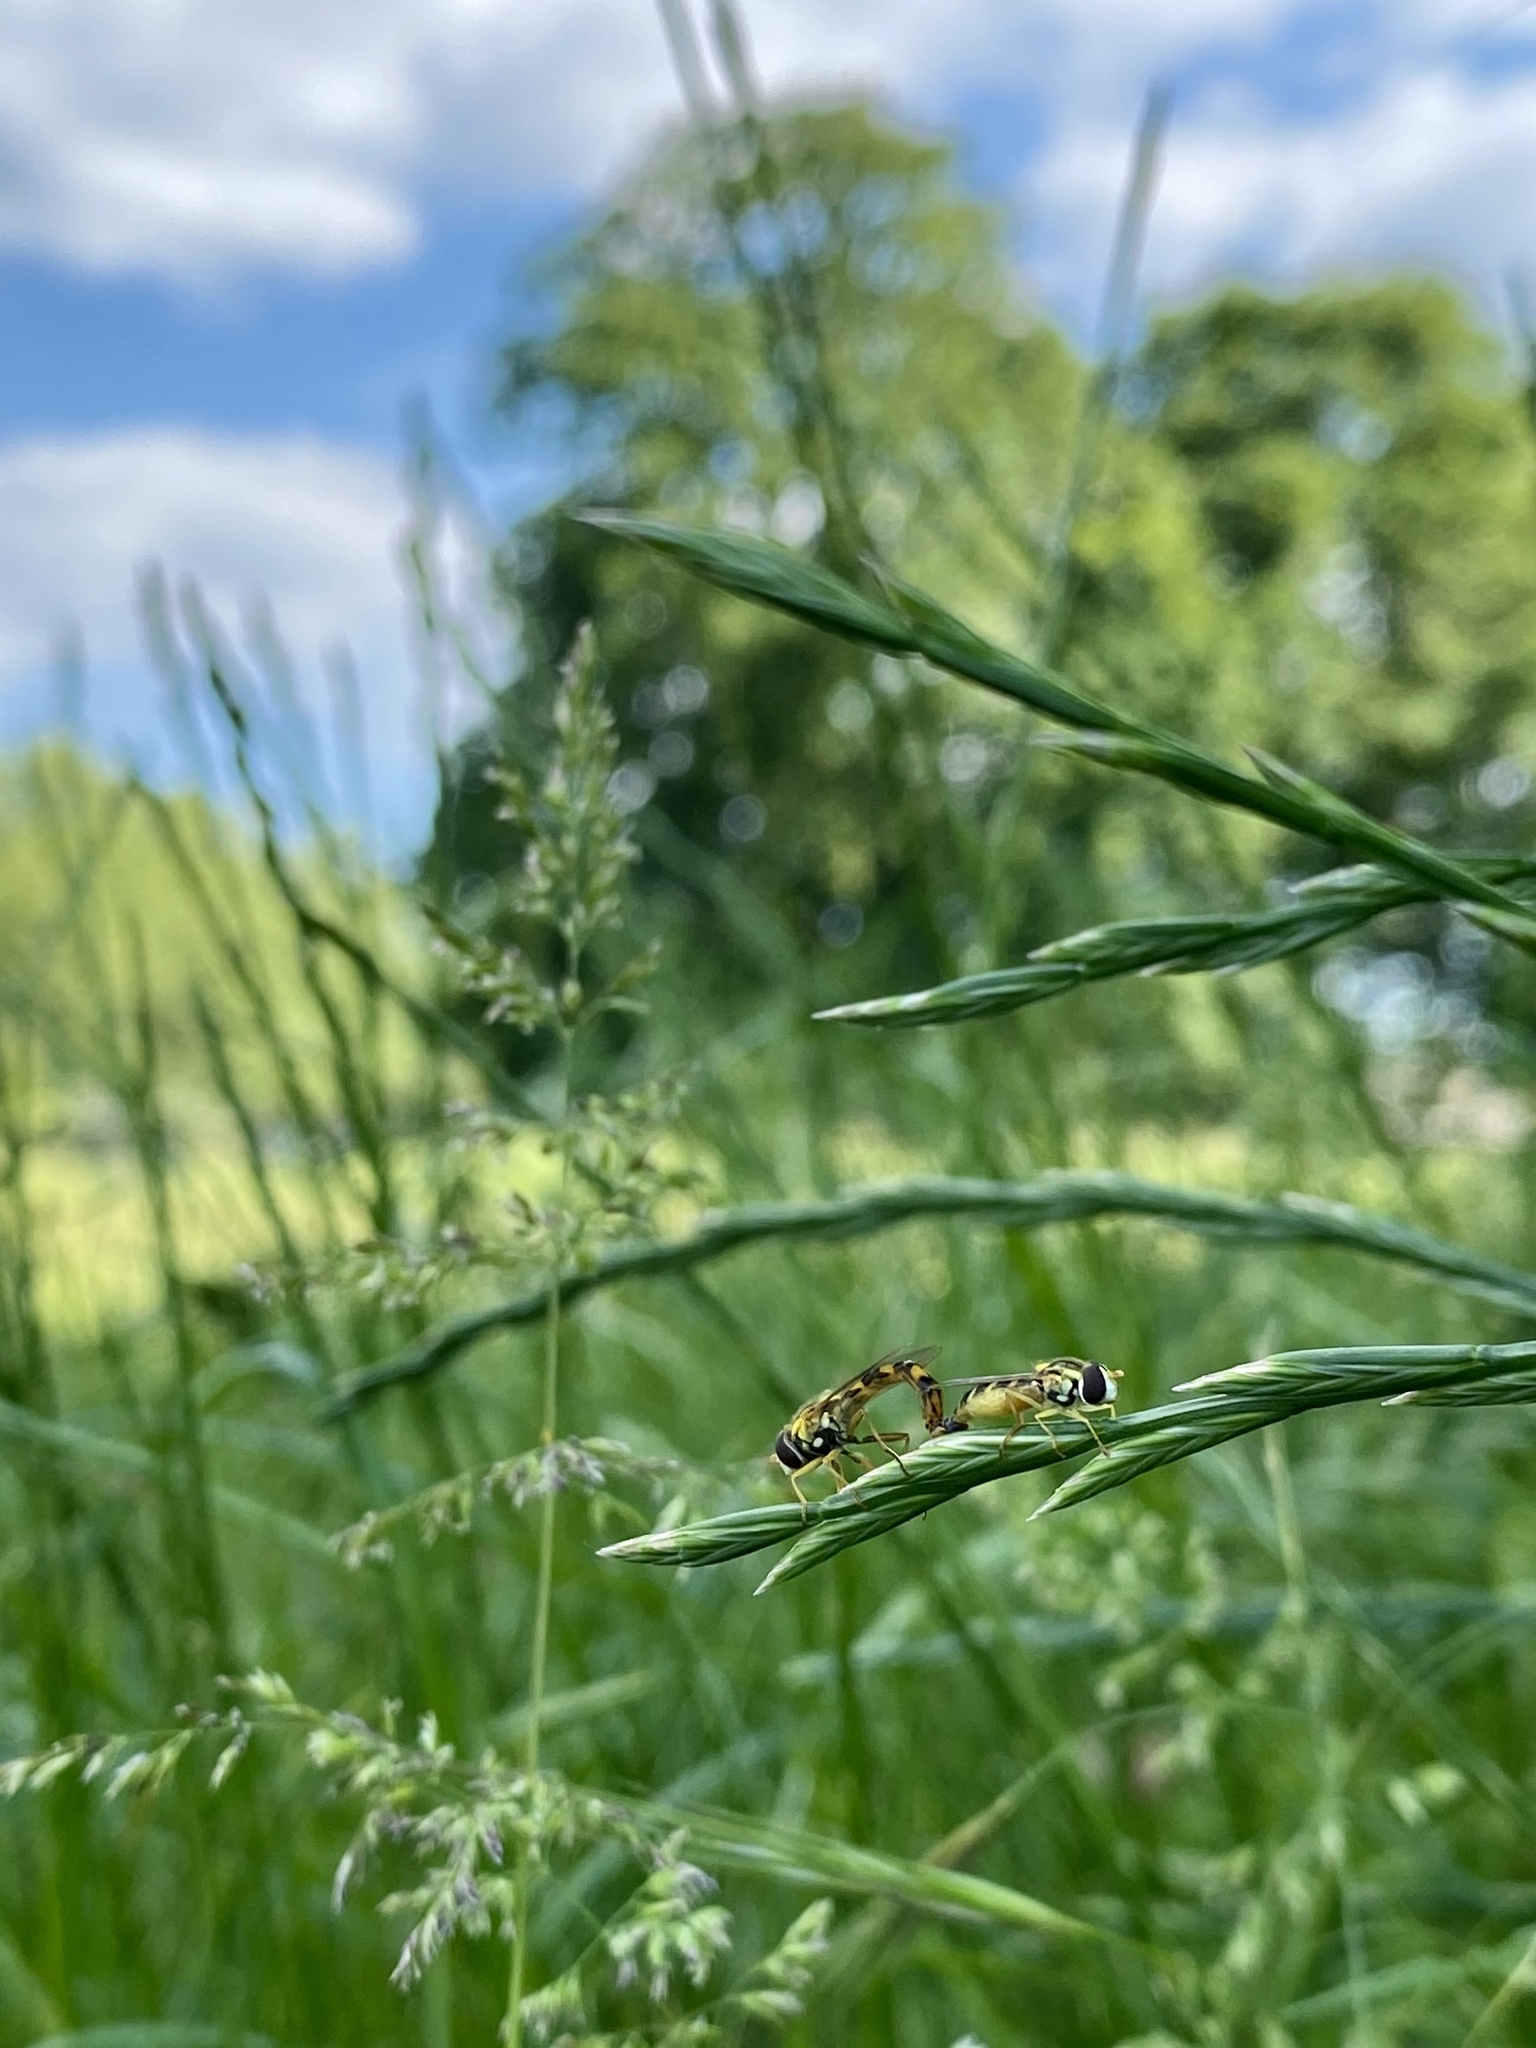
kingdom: Animalia
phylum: Arthropoda
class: Insecta
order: Diptera
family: Syrphidae
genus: Sphaerophoria
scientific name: Sphaerophoria scripta
